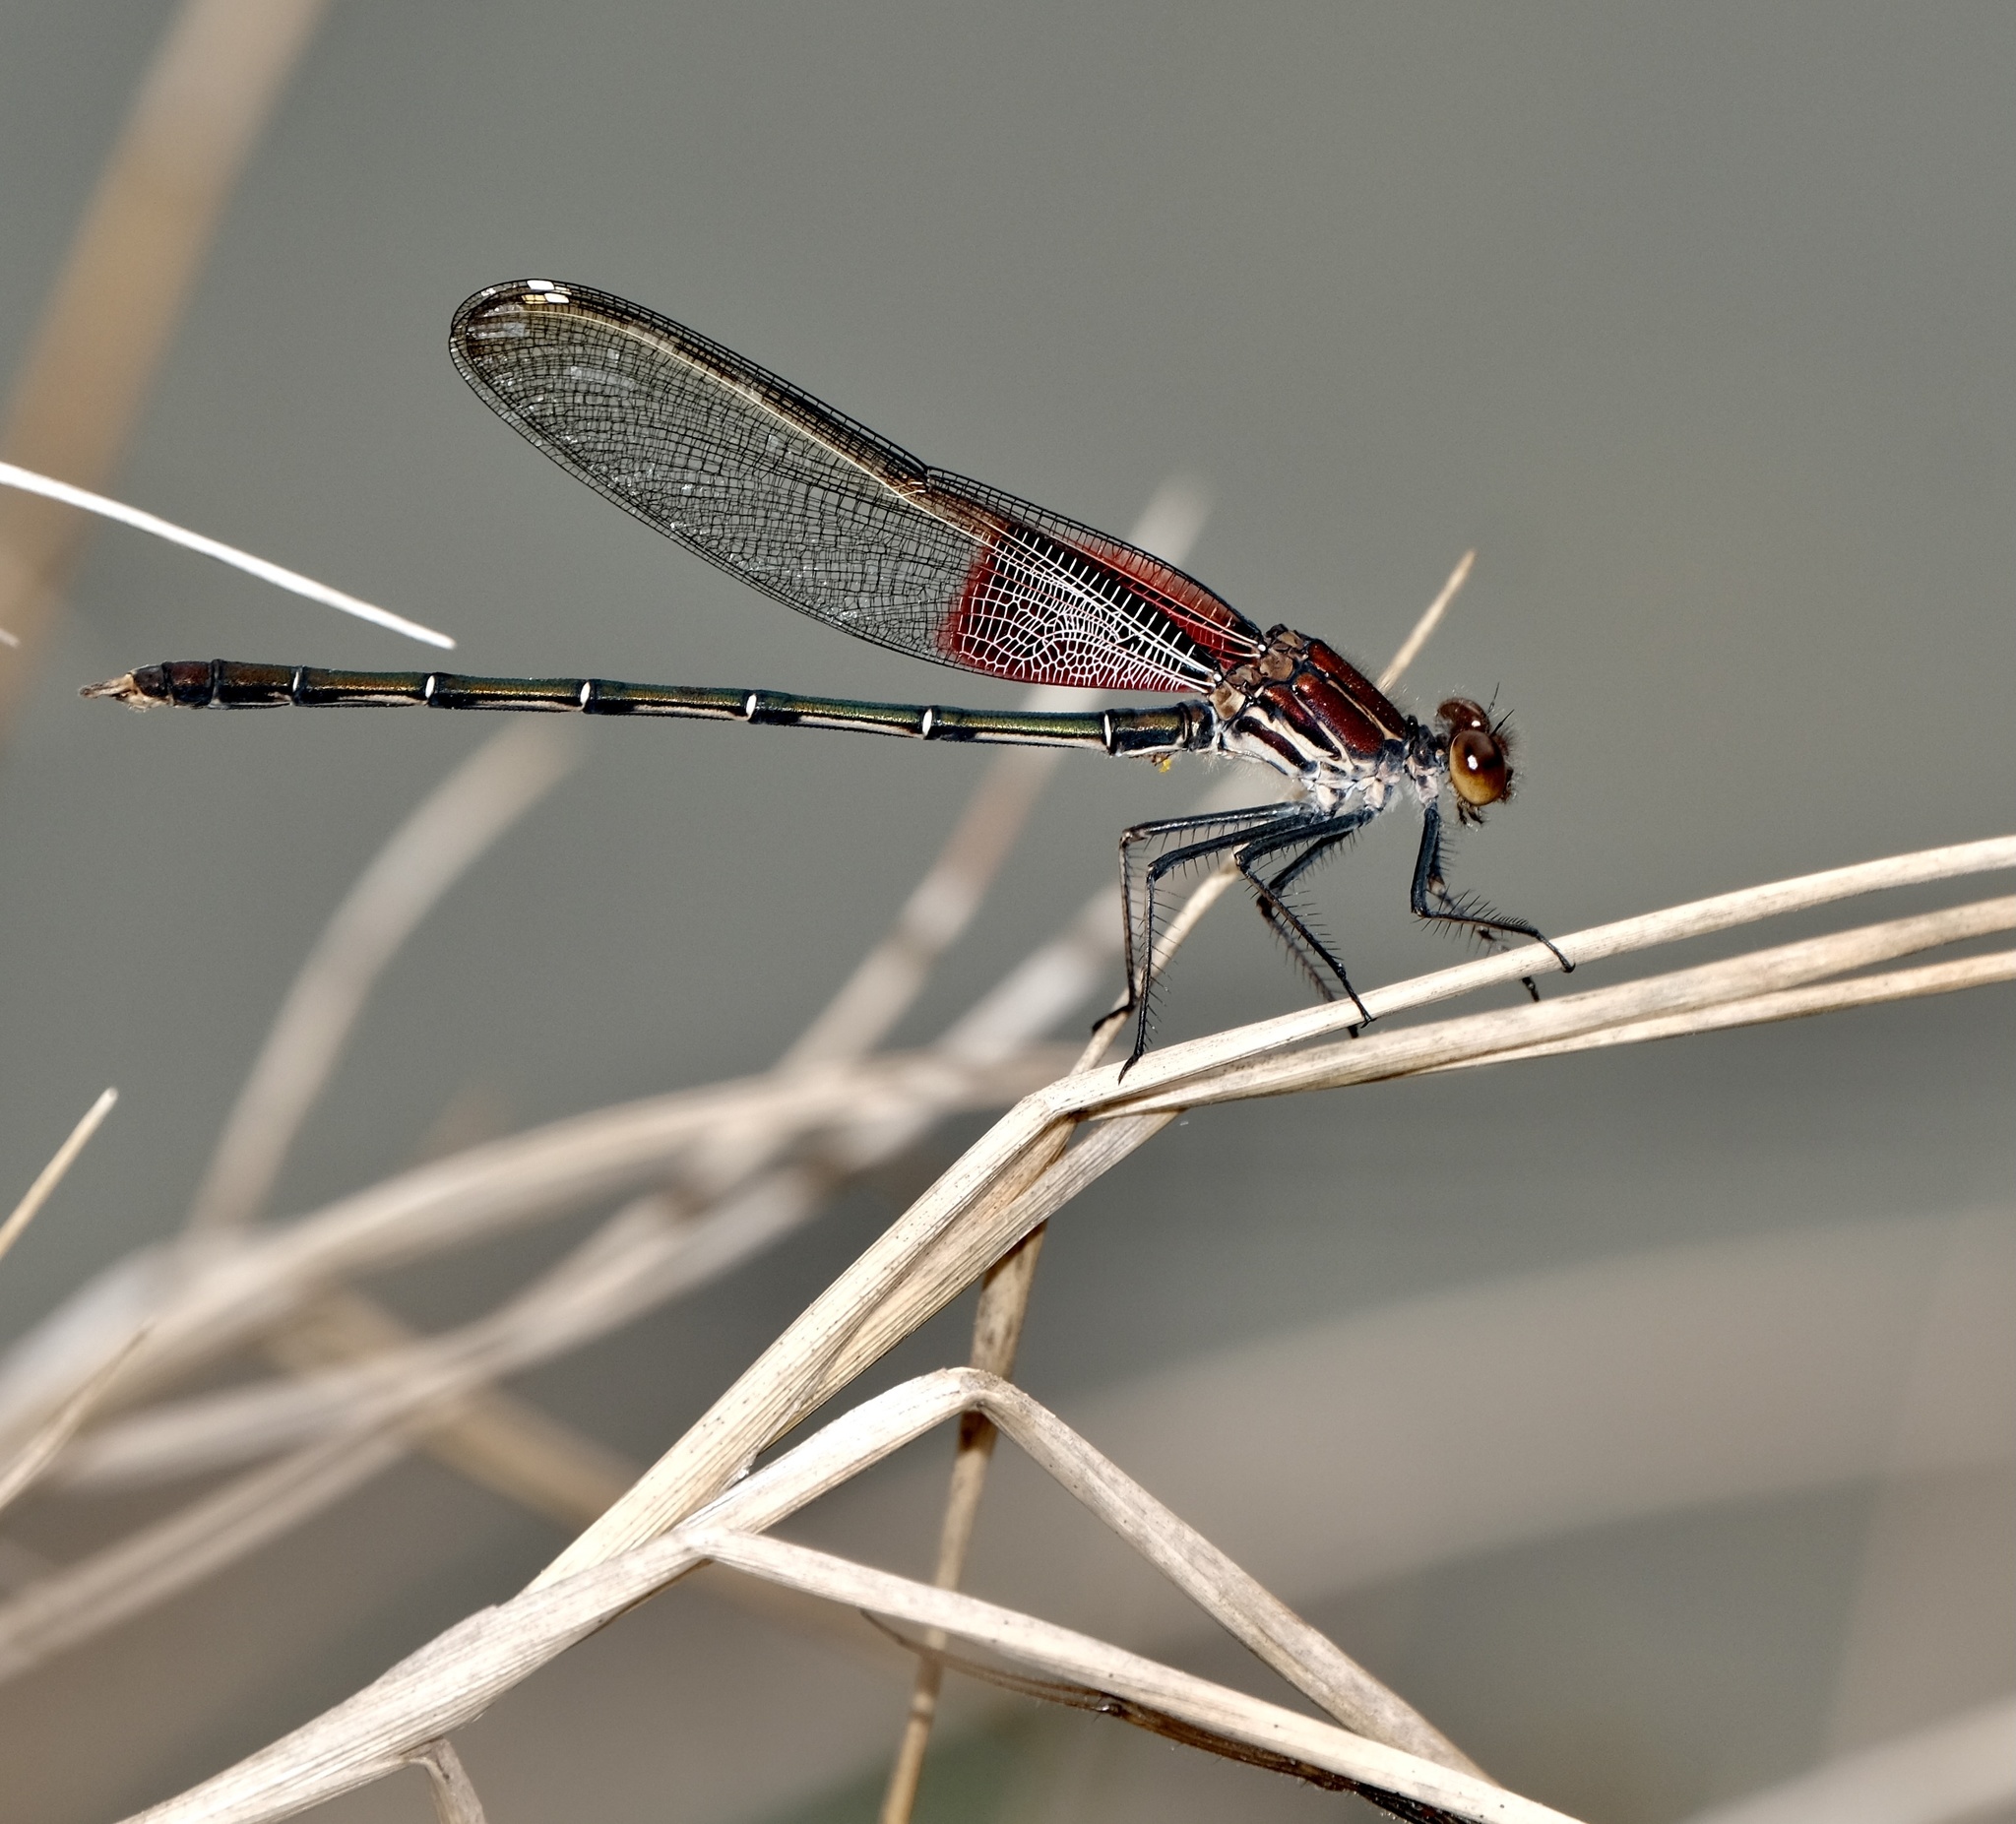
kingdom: Animalia
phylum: Arthropoda
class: Insecta
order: Odonata
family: Calopterygidae
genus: Hetaerina
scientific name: Hetaerina americana
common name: American rubyspot
